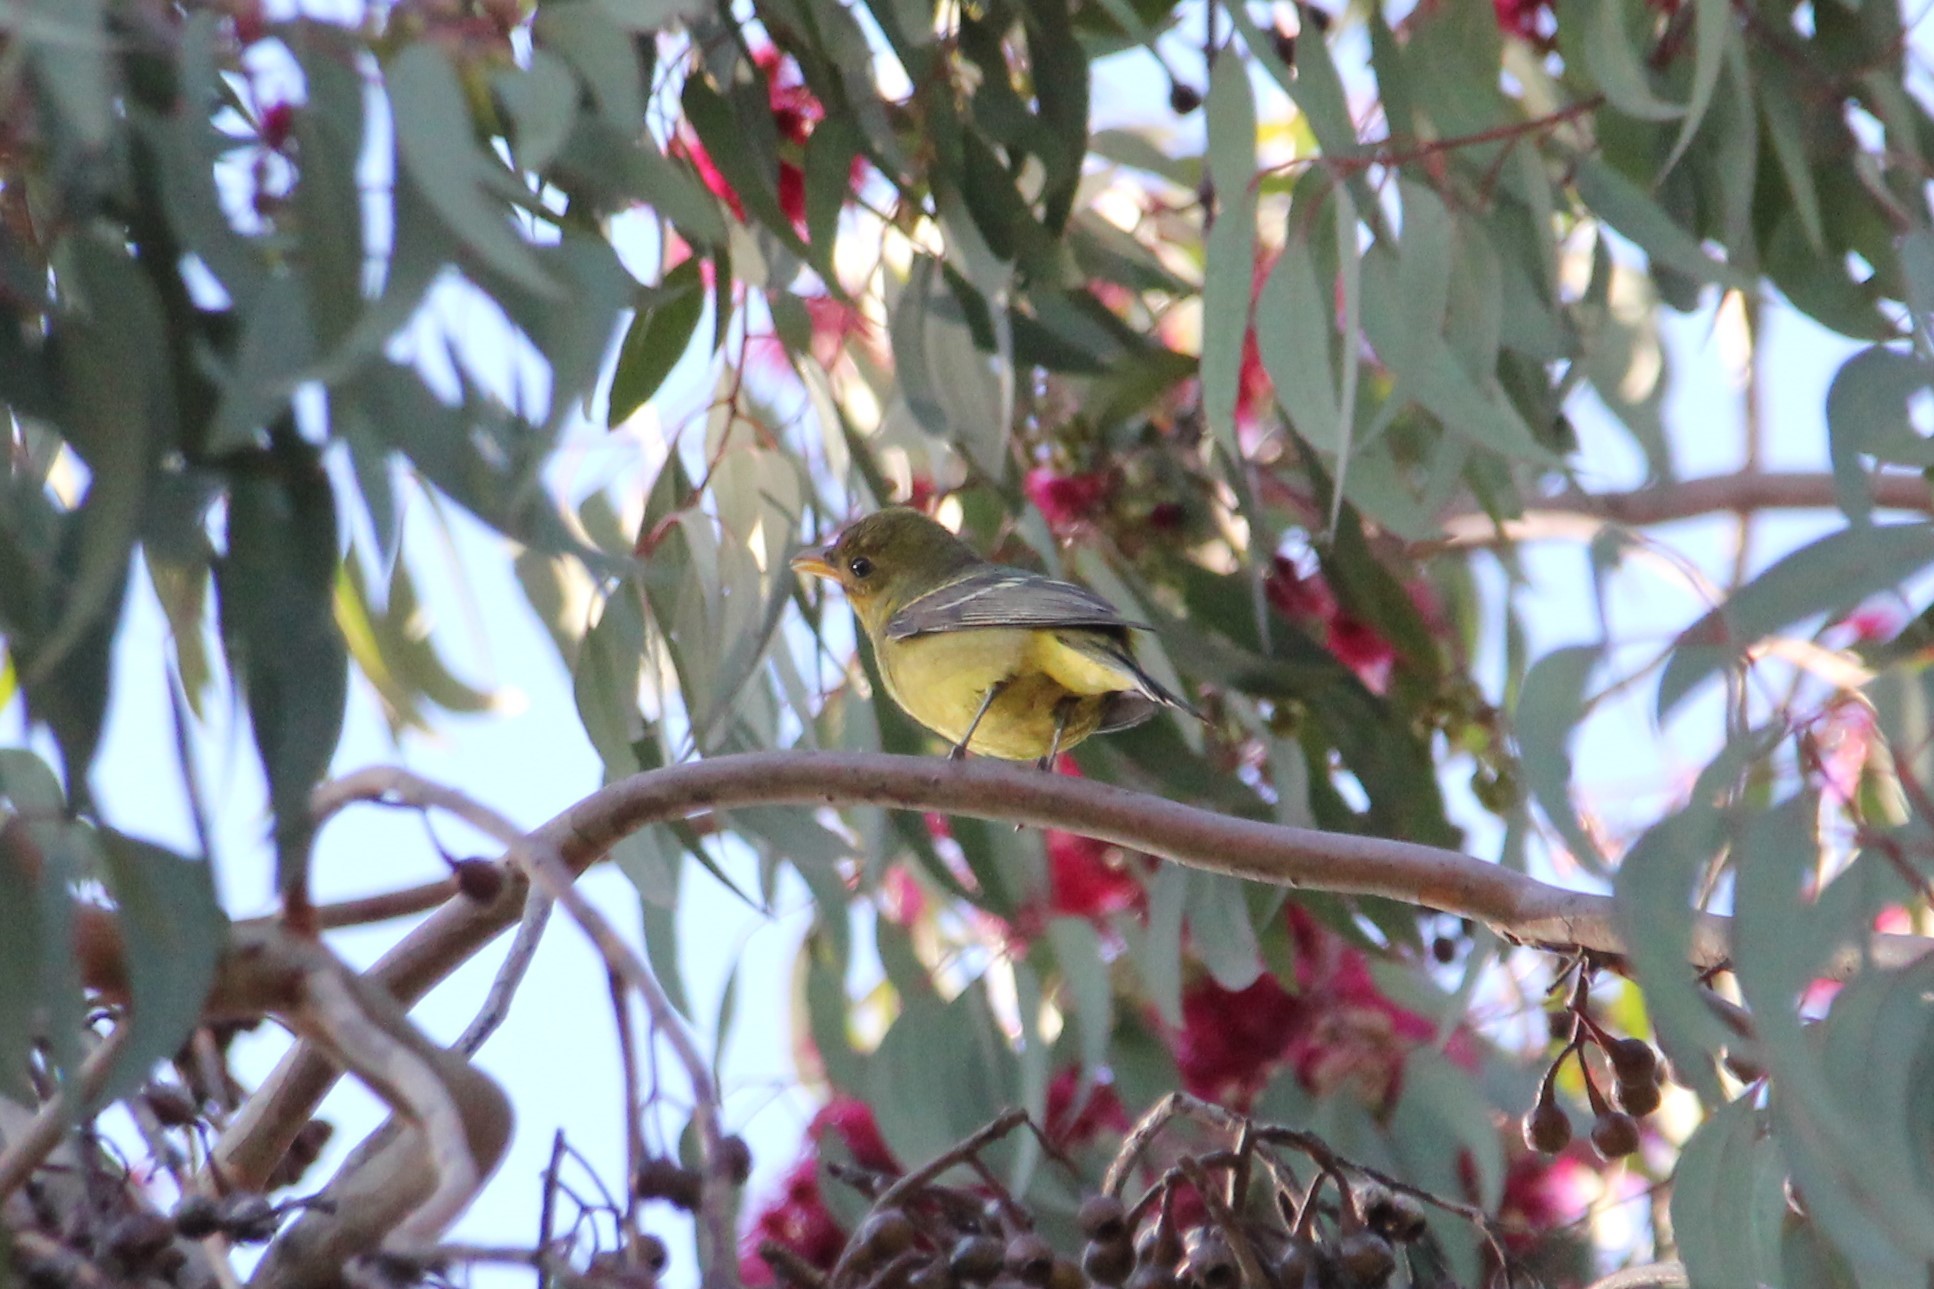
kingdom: Animalia
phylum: Chordata
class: Aves
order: Passeriformes
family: Cardinalidae
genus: Piranga
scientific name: Piranga ludoviciana
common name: Western tanager
